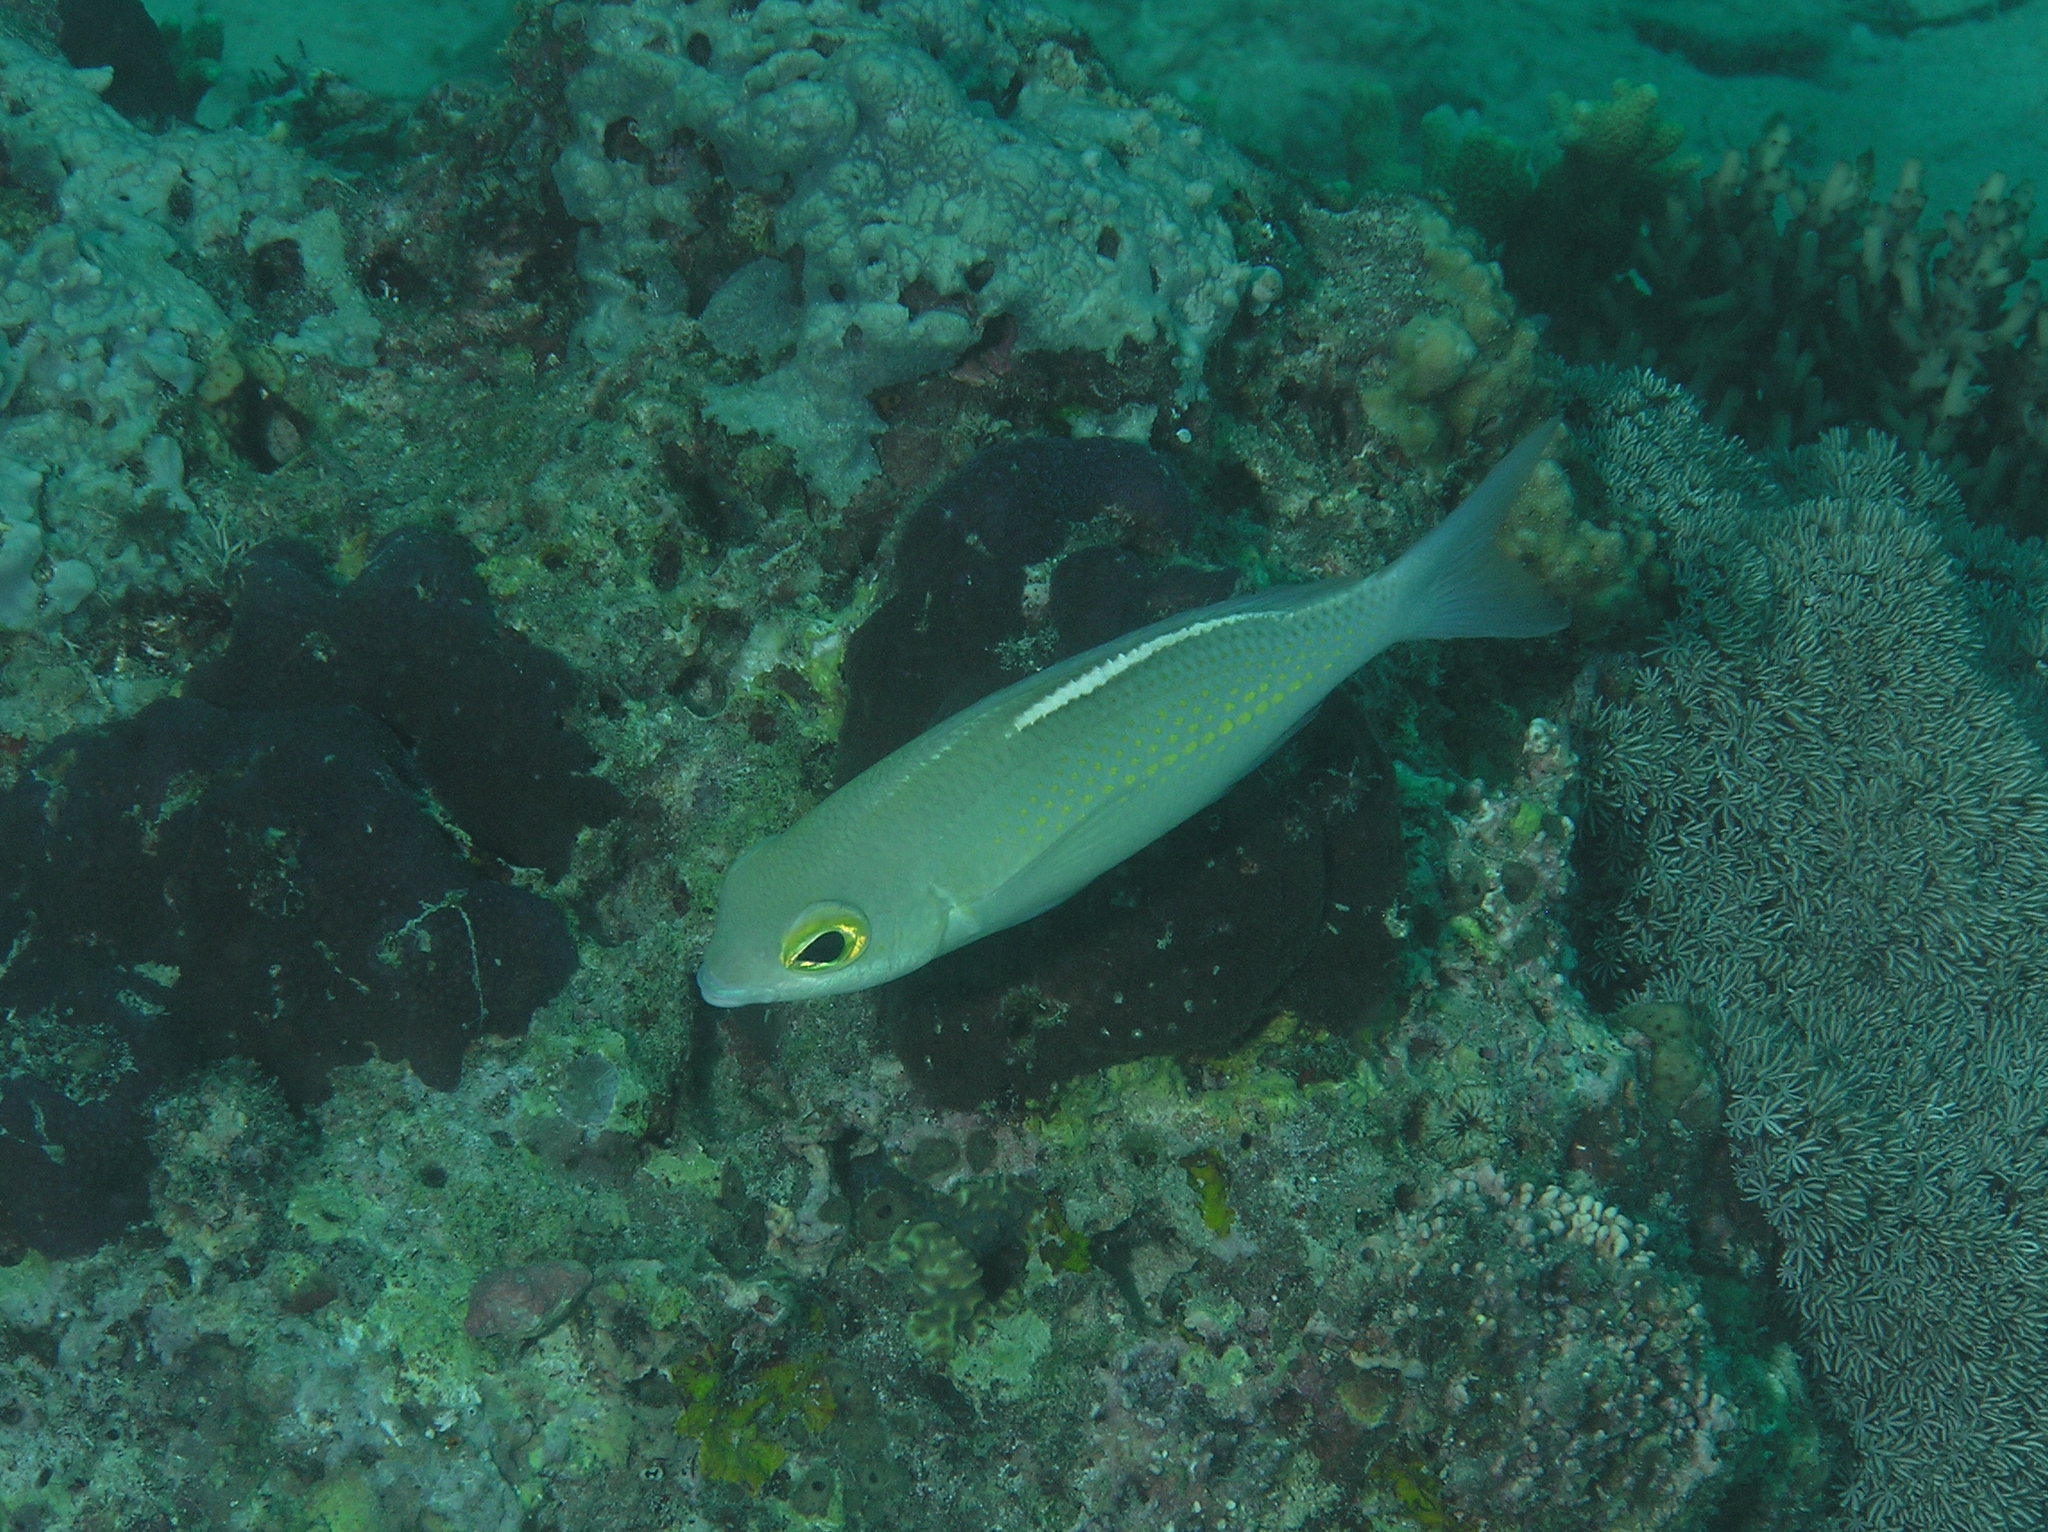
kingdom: Animalia
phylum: Chordata
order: Perciformes
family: Nemipteridae
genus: Scolopsis
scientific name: Scolopsis ciliata
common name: Ciliate spinecheek
